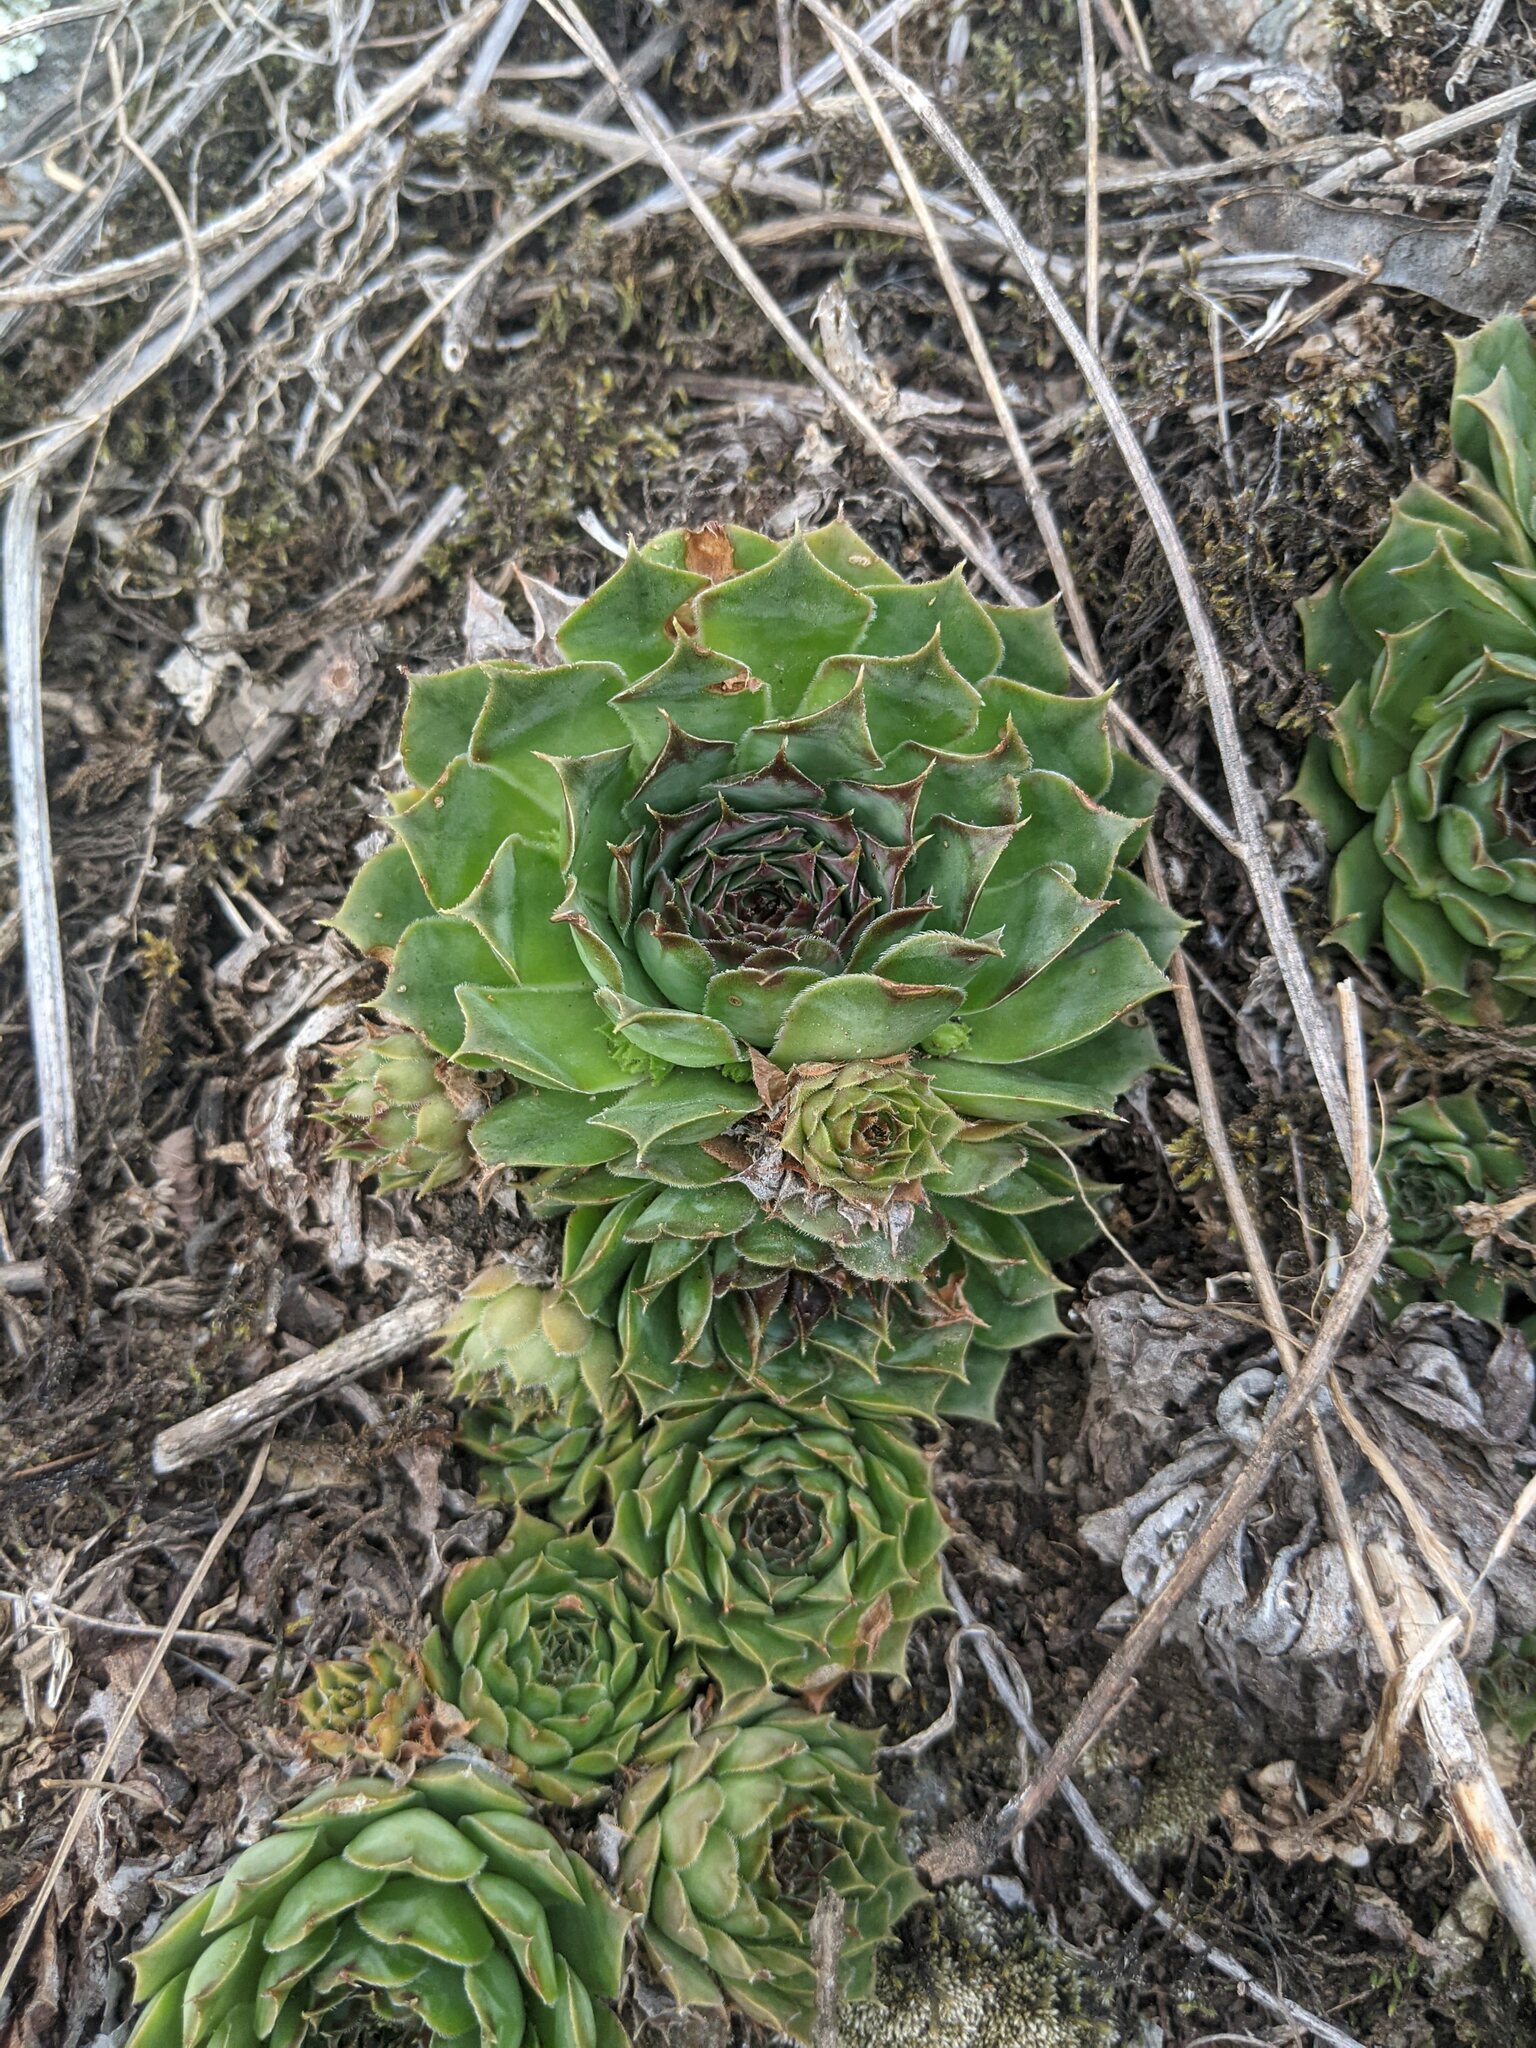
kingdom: Plantae
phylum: Tracheophyta
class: Magnoliopsida
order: Saxifragales
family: Crassulaceae
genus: Sempervivum
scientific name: Sempervivum tectorum
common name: House-leek
